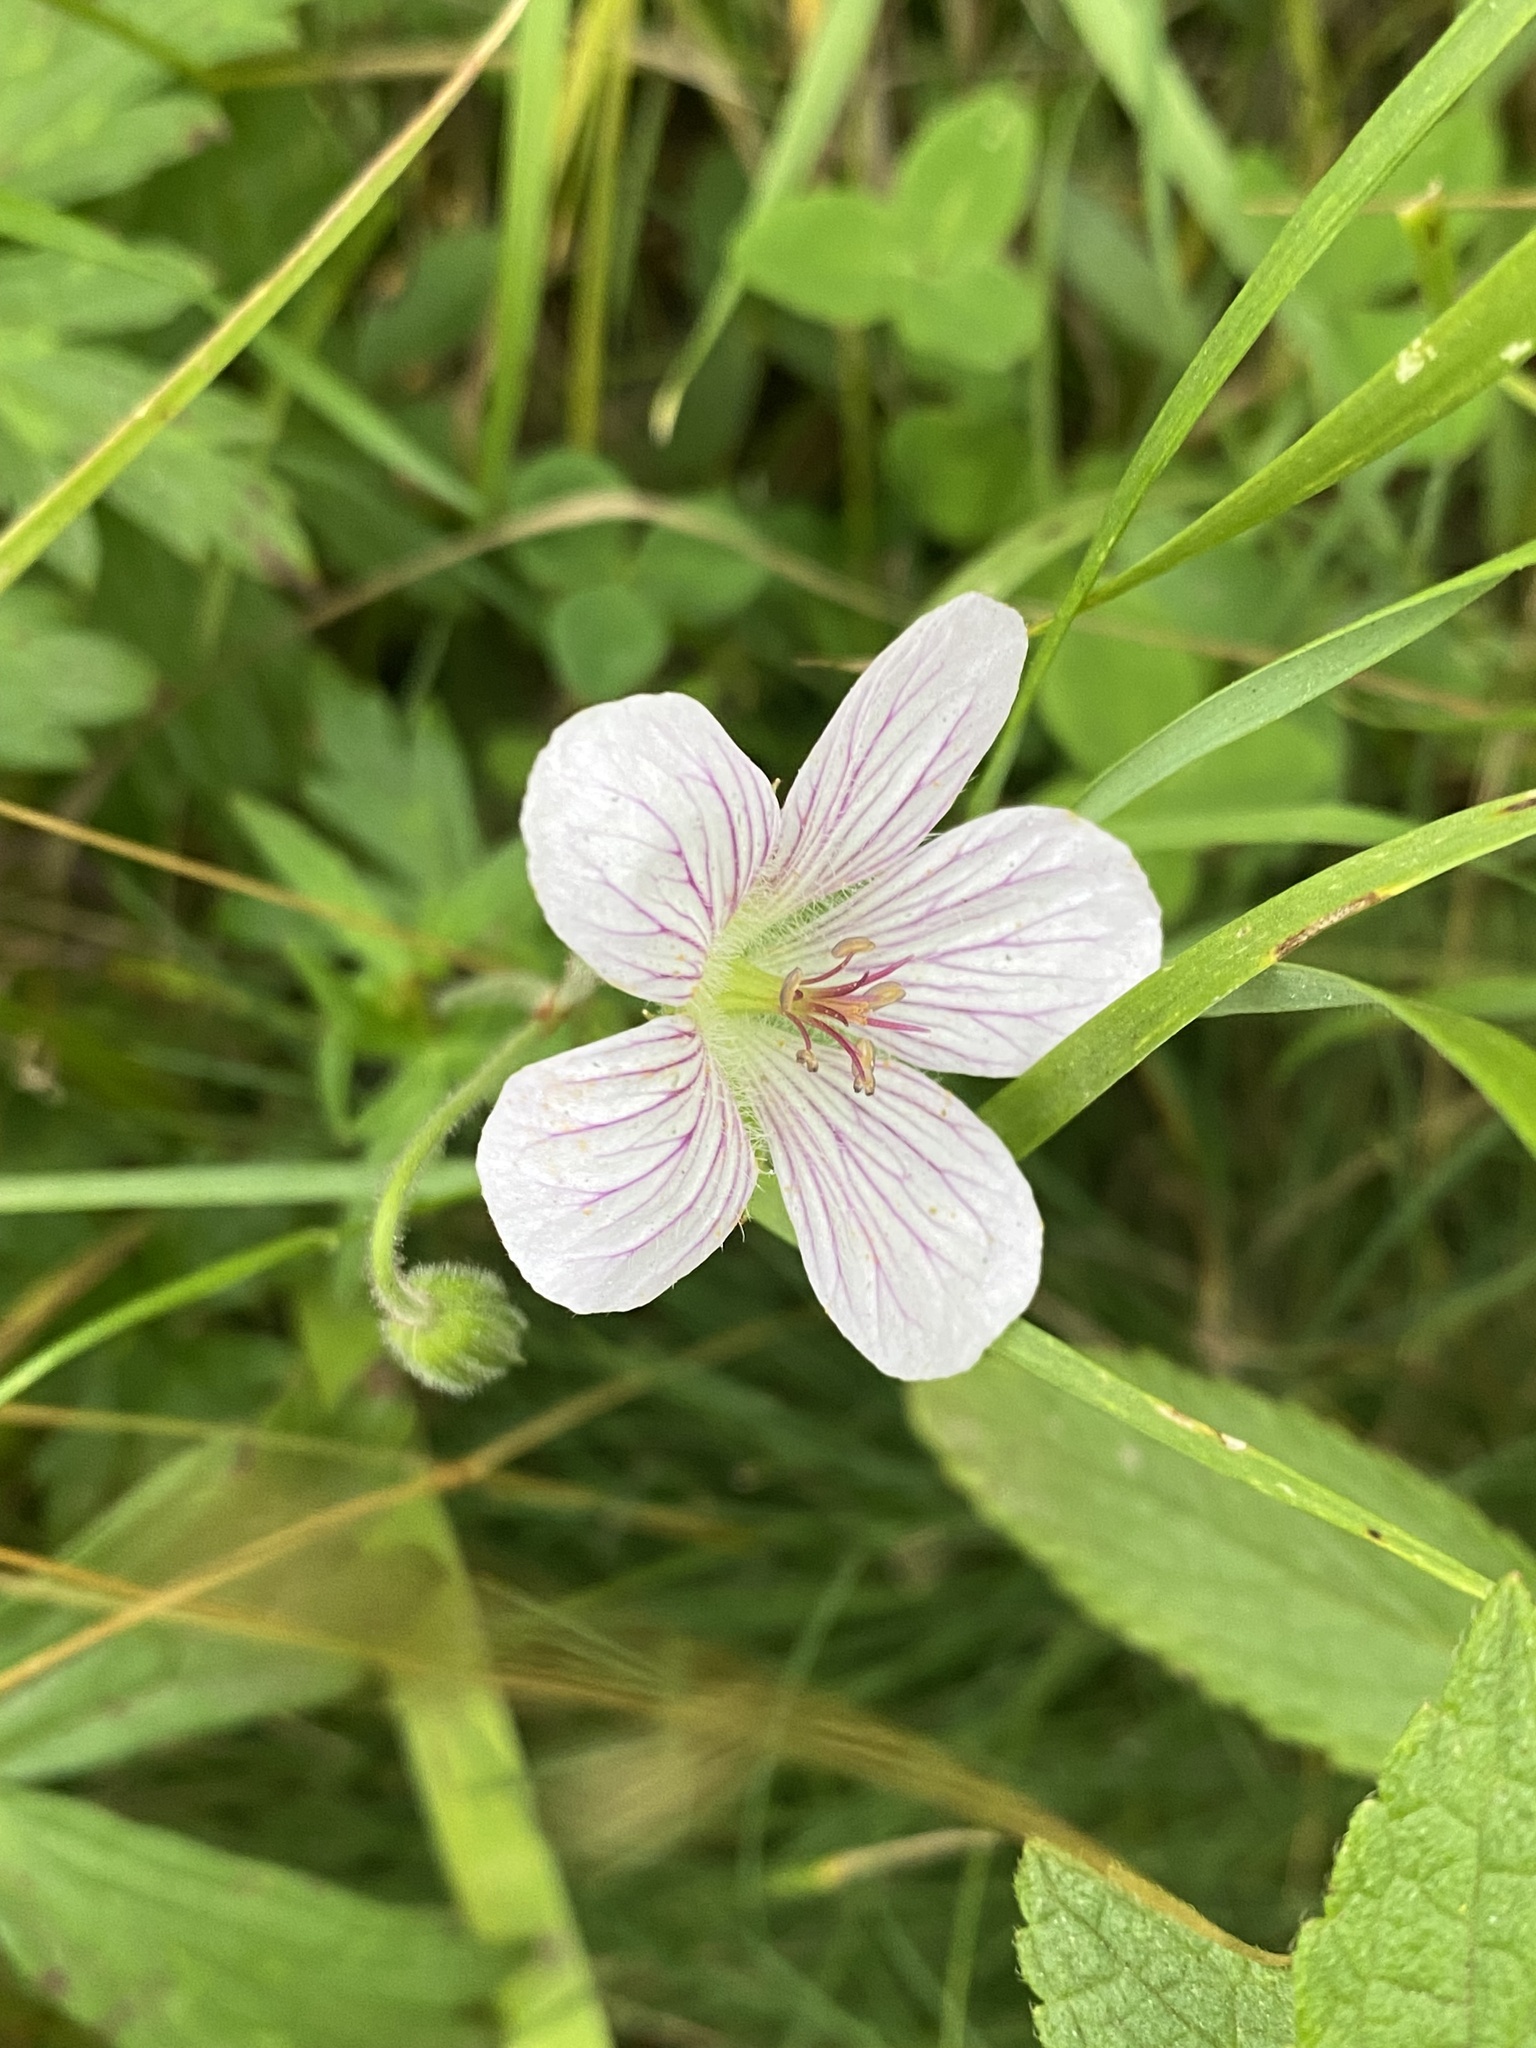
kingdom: Plantae
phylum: Tracheophyta
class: Magnoliopsida
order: Geraniales
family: Geraniaceae
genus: Geranium
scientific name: Geranium richardsonii
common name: Richardson's crane's-bill
